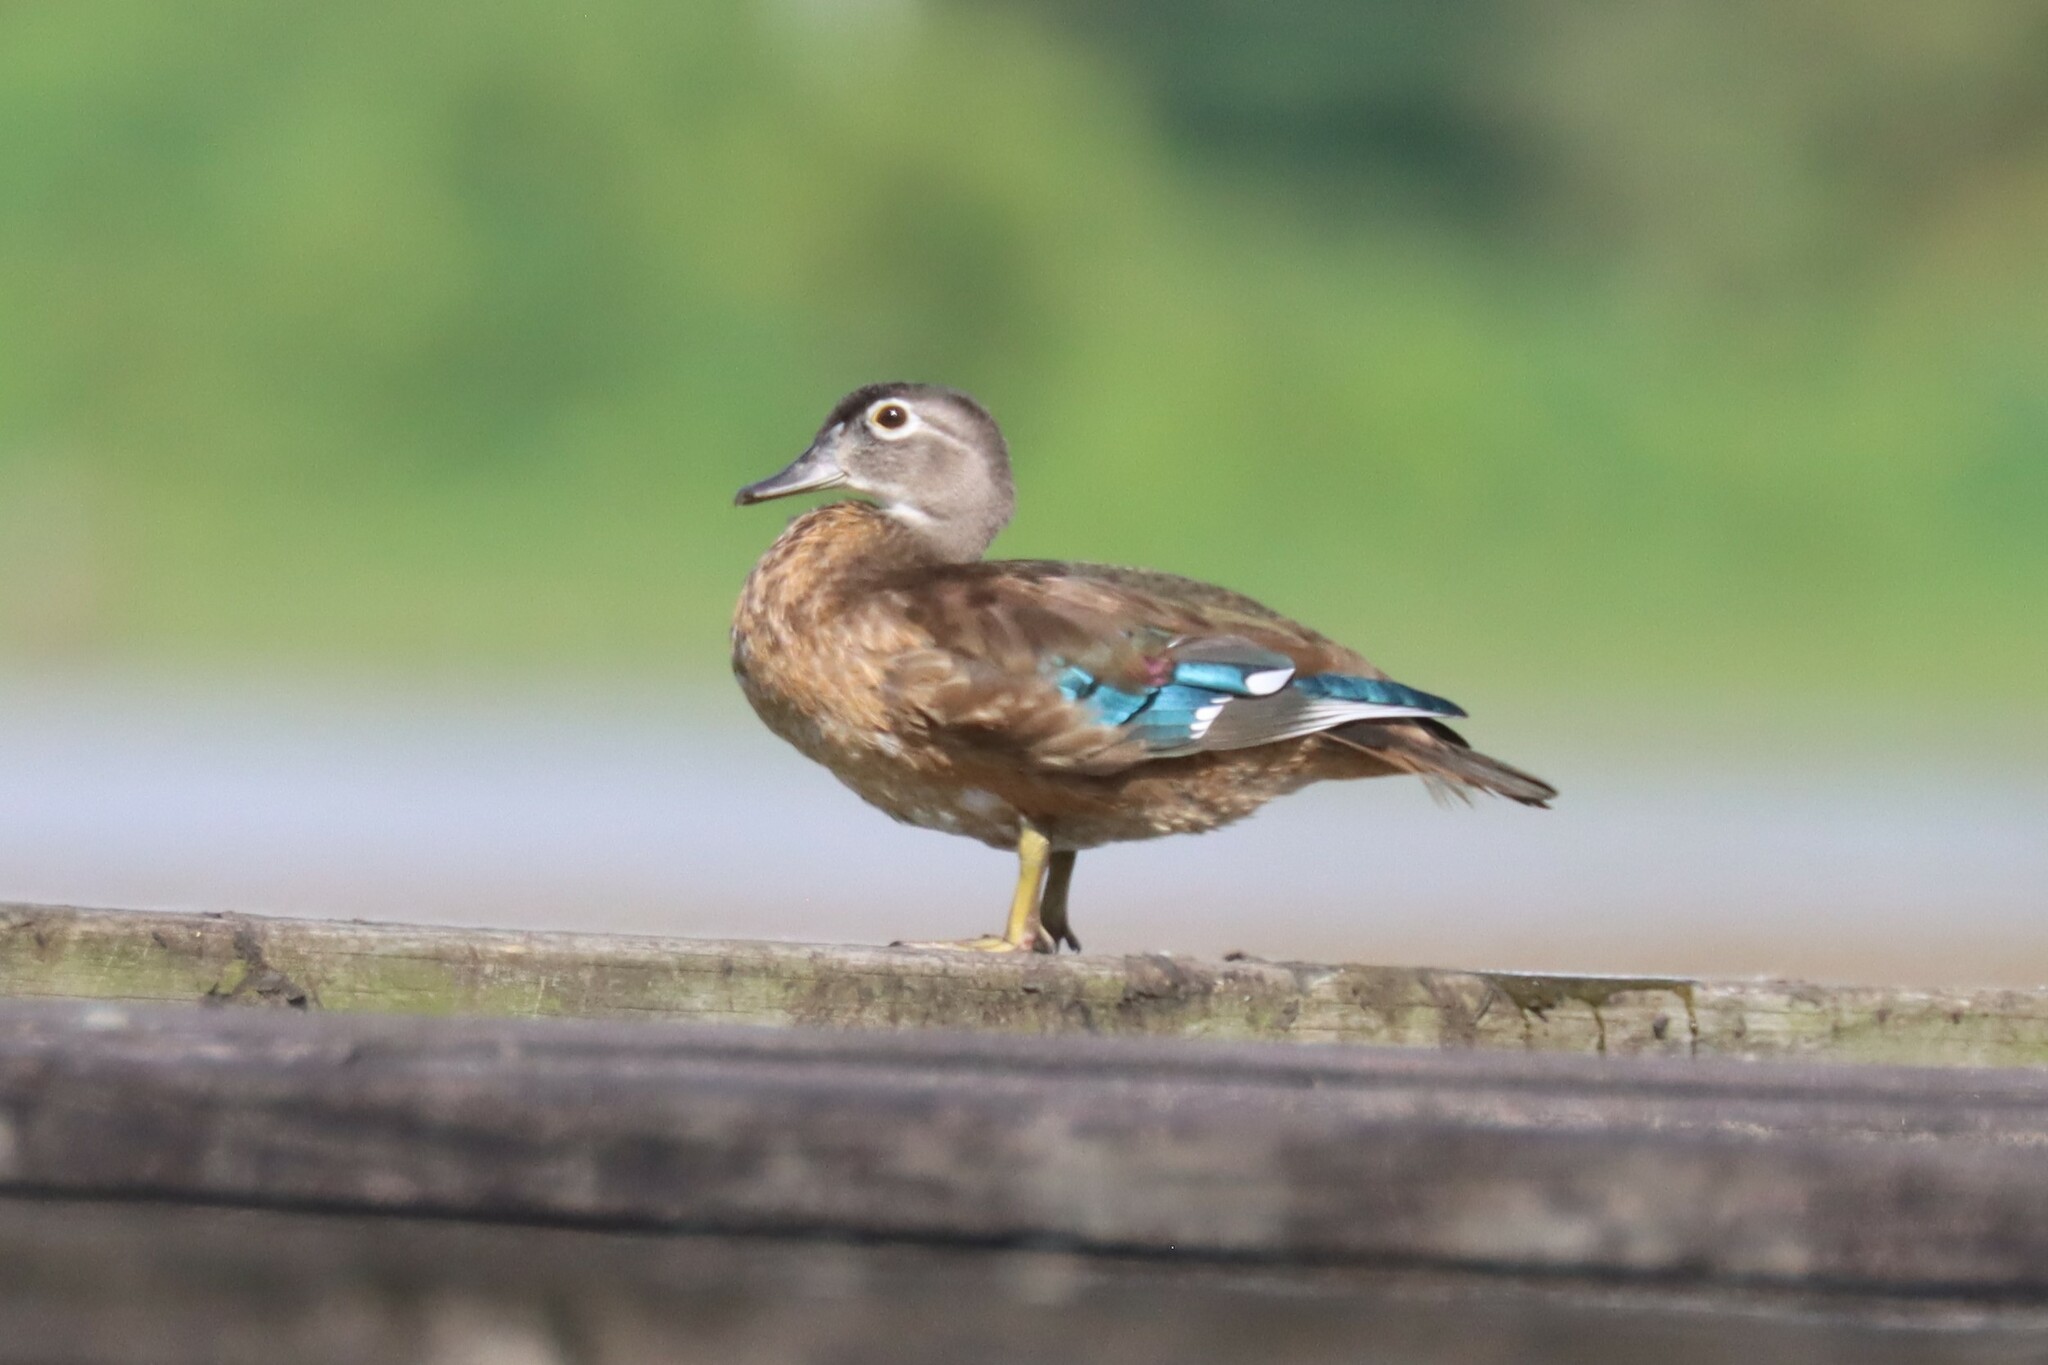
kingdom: Animalia
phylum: Chordata
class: Aves
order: Anseriformes
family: Anatidae
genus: Aix
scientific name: Aix sponsa
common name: Wood duck
